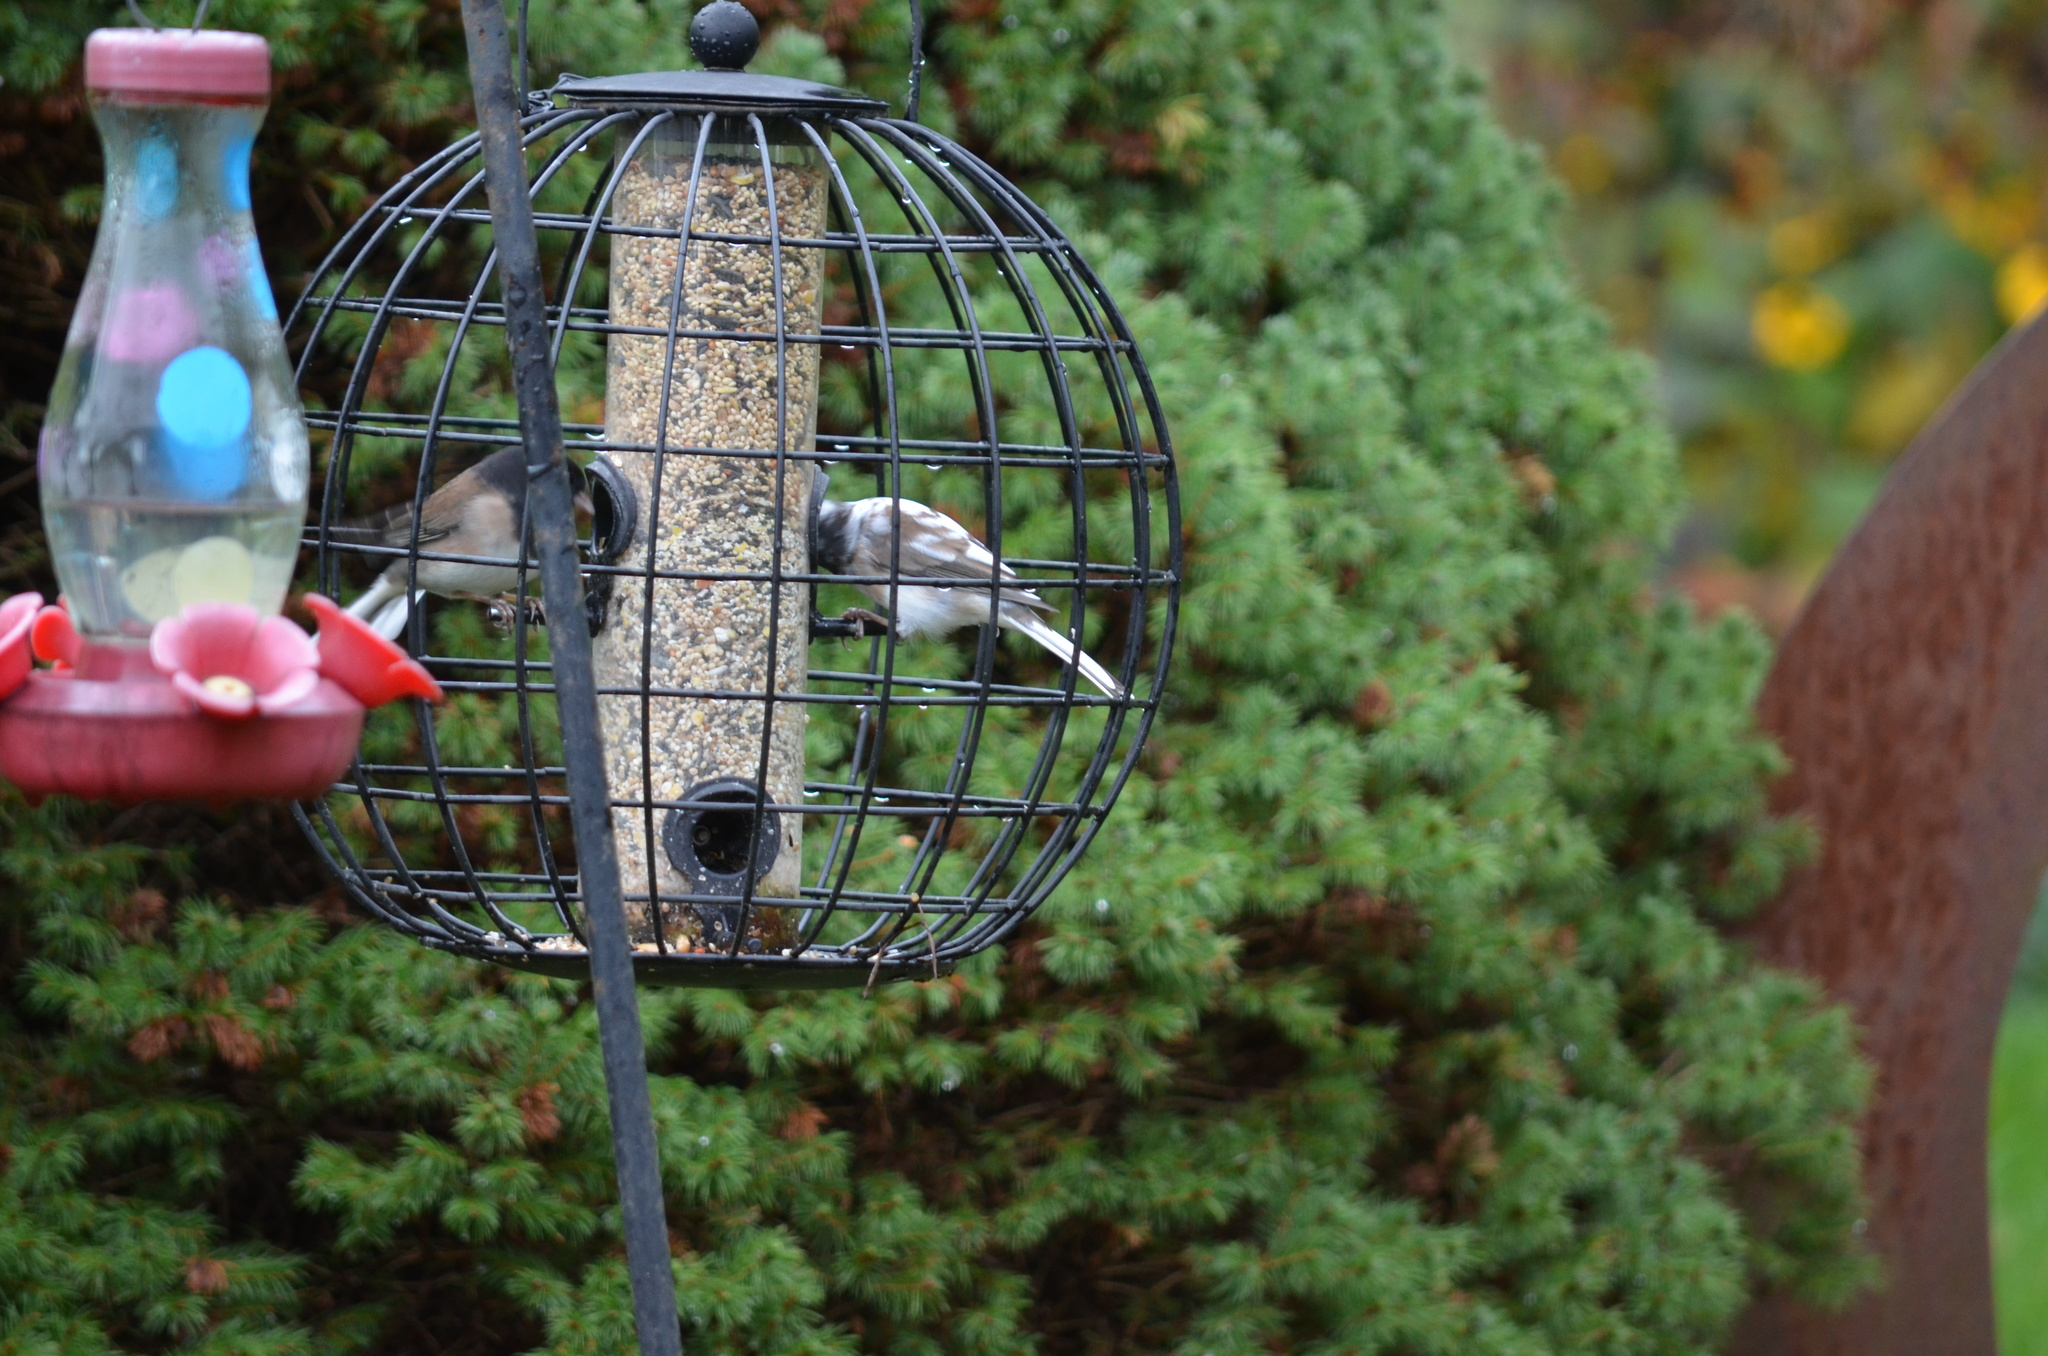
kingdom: Animalia
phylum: Chordata
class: Aves
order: Passeriformes
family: Passerellidae
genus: Junco
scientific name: Junco hyemalis
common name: Dark-eyed junco
